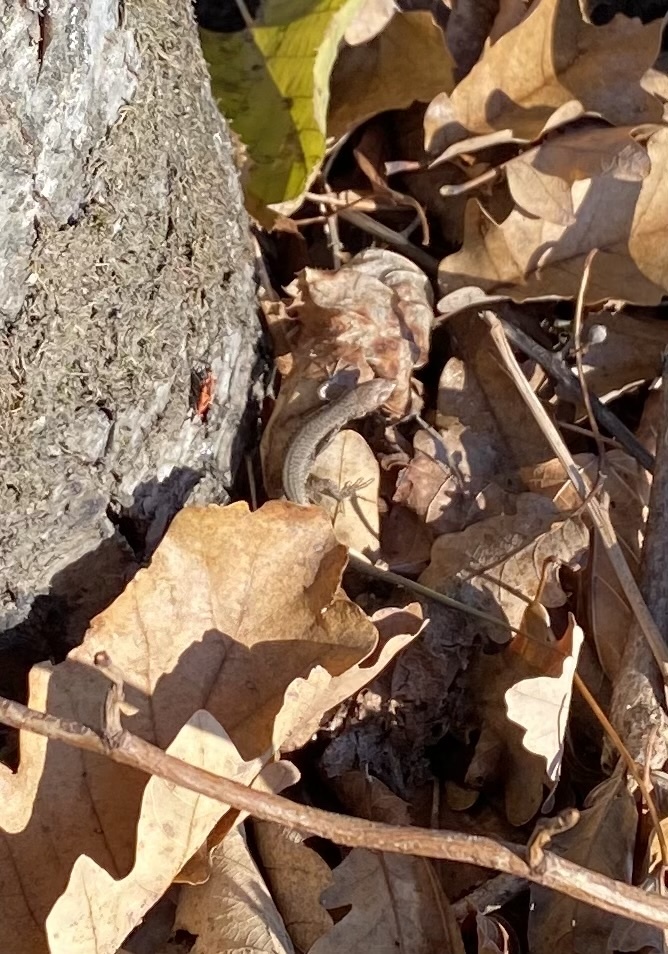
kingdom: Animalia
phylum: Chordata
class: Squamata
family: Lacertidae
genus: Darevskia
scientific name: Darevskia brauneri
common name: Brauner's rock lizard
